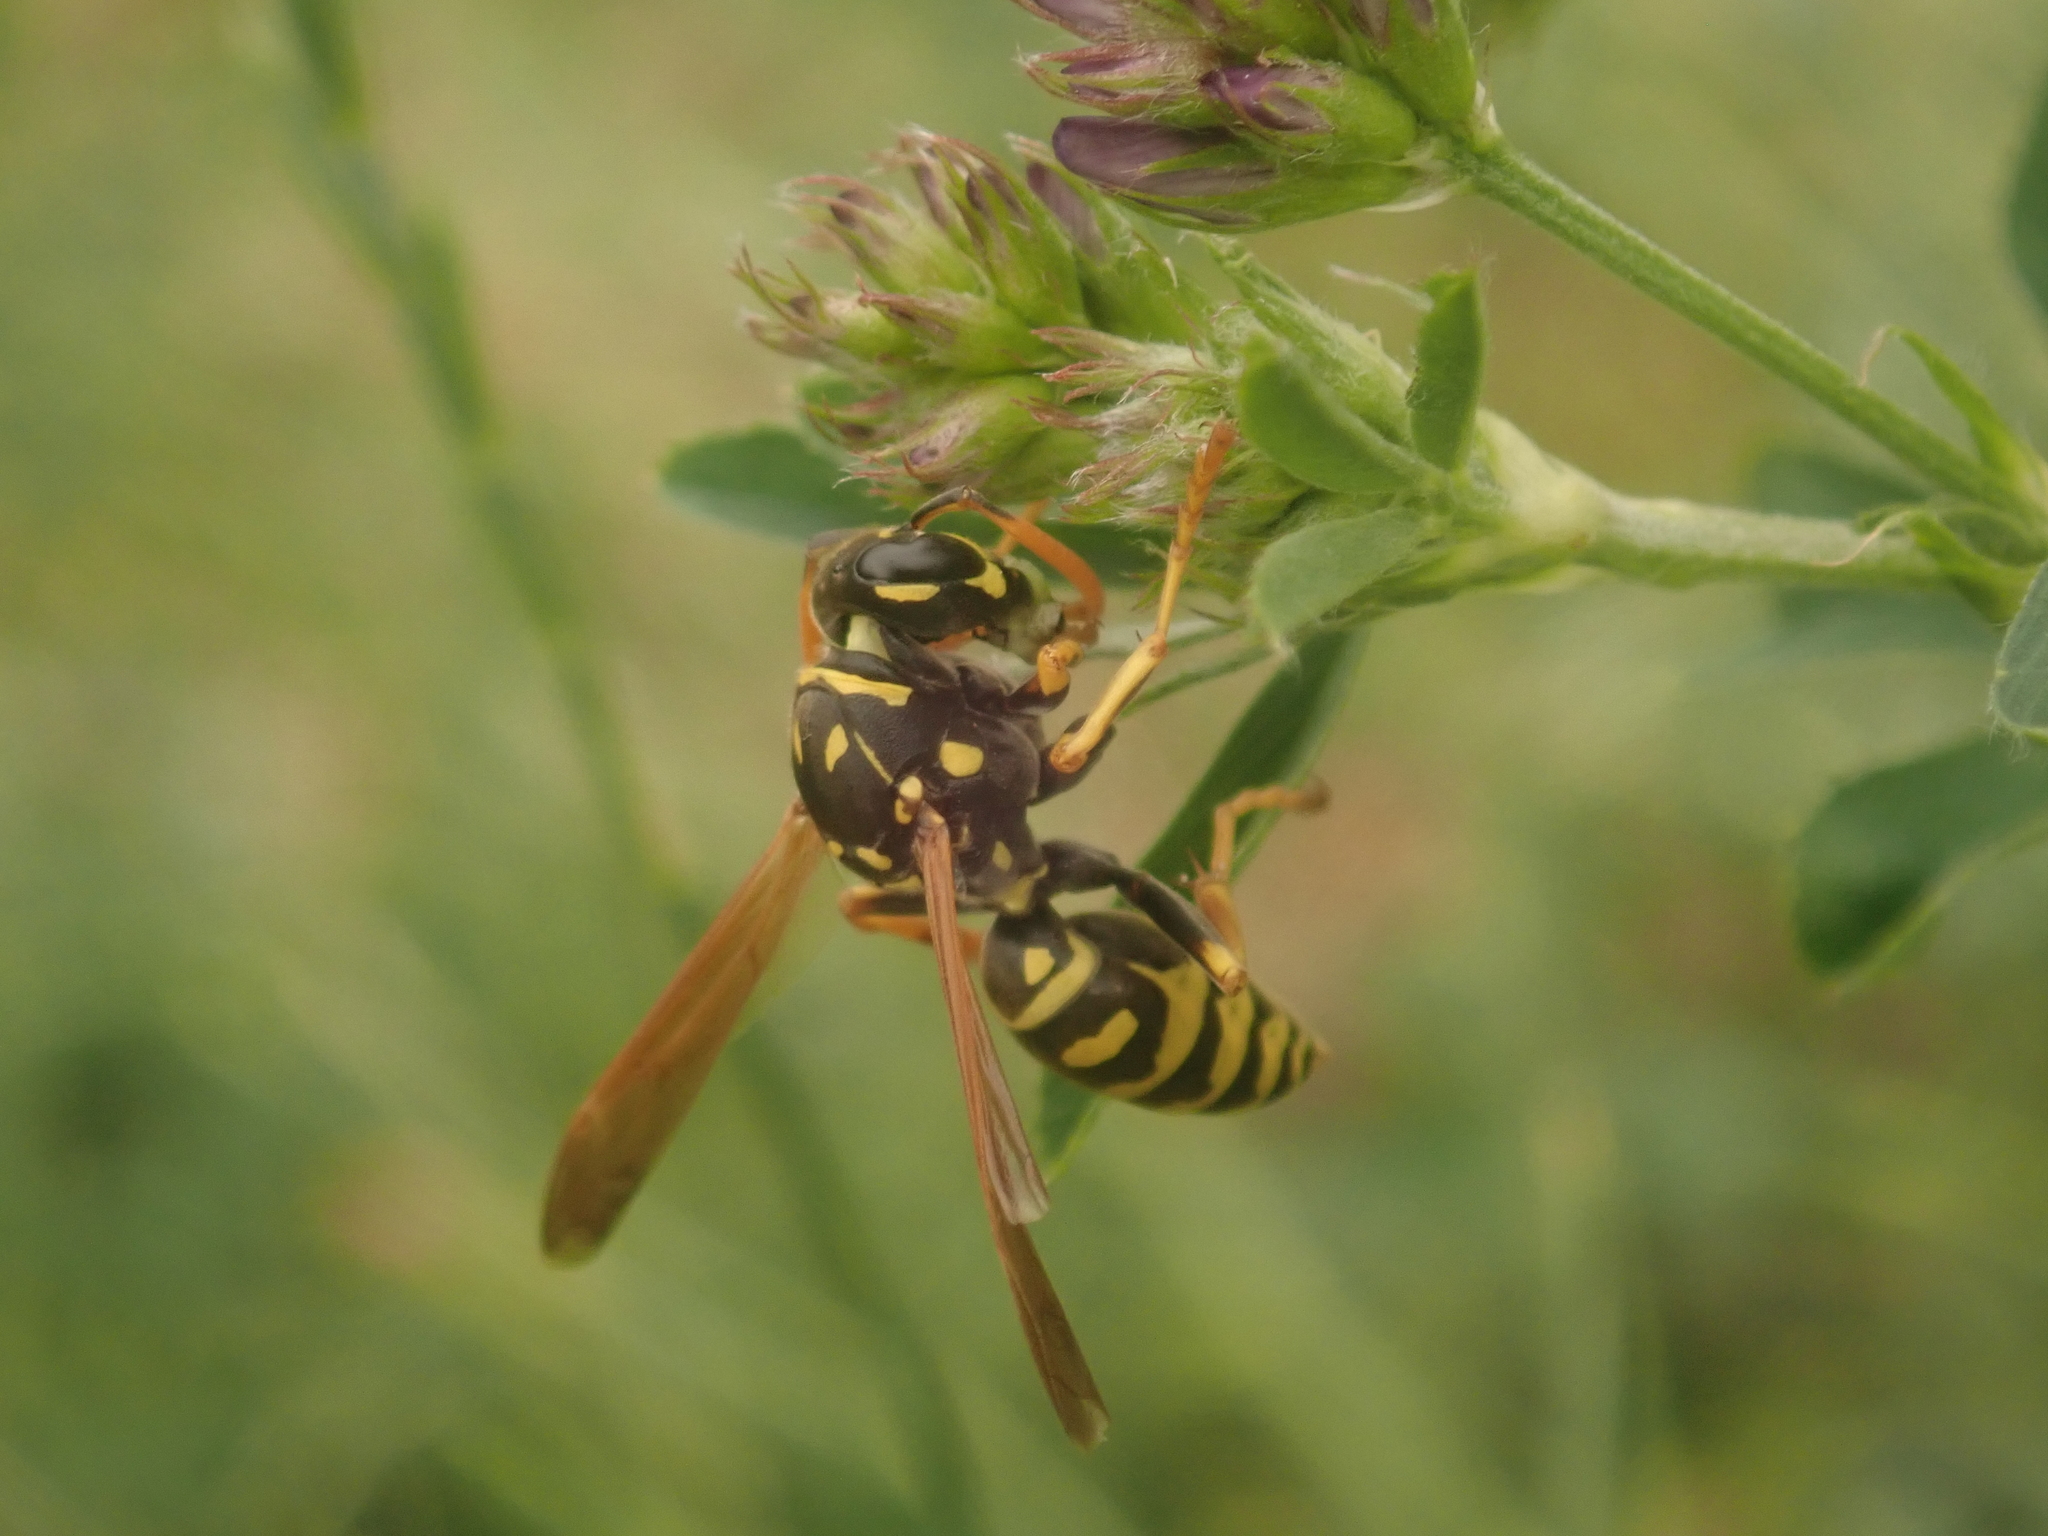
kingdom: Animalia
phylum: Arthropoda
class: Insecta
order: Hymenoptera
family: Eumenidae
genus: Polistes
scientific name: Polistes dominula
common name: Paper wasp
